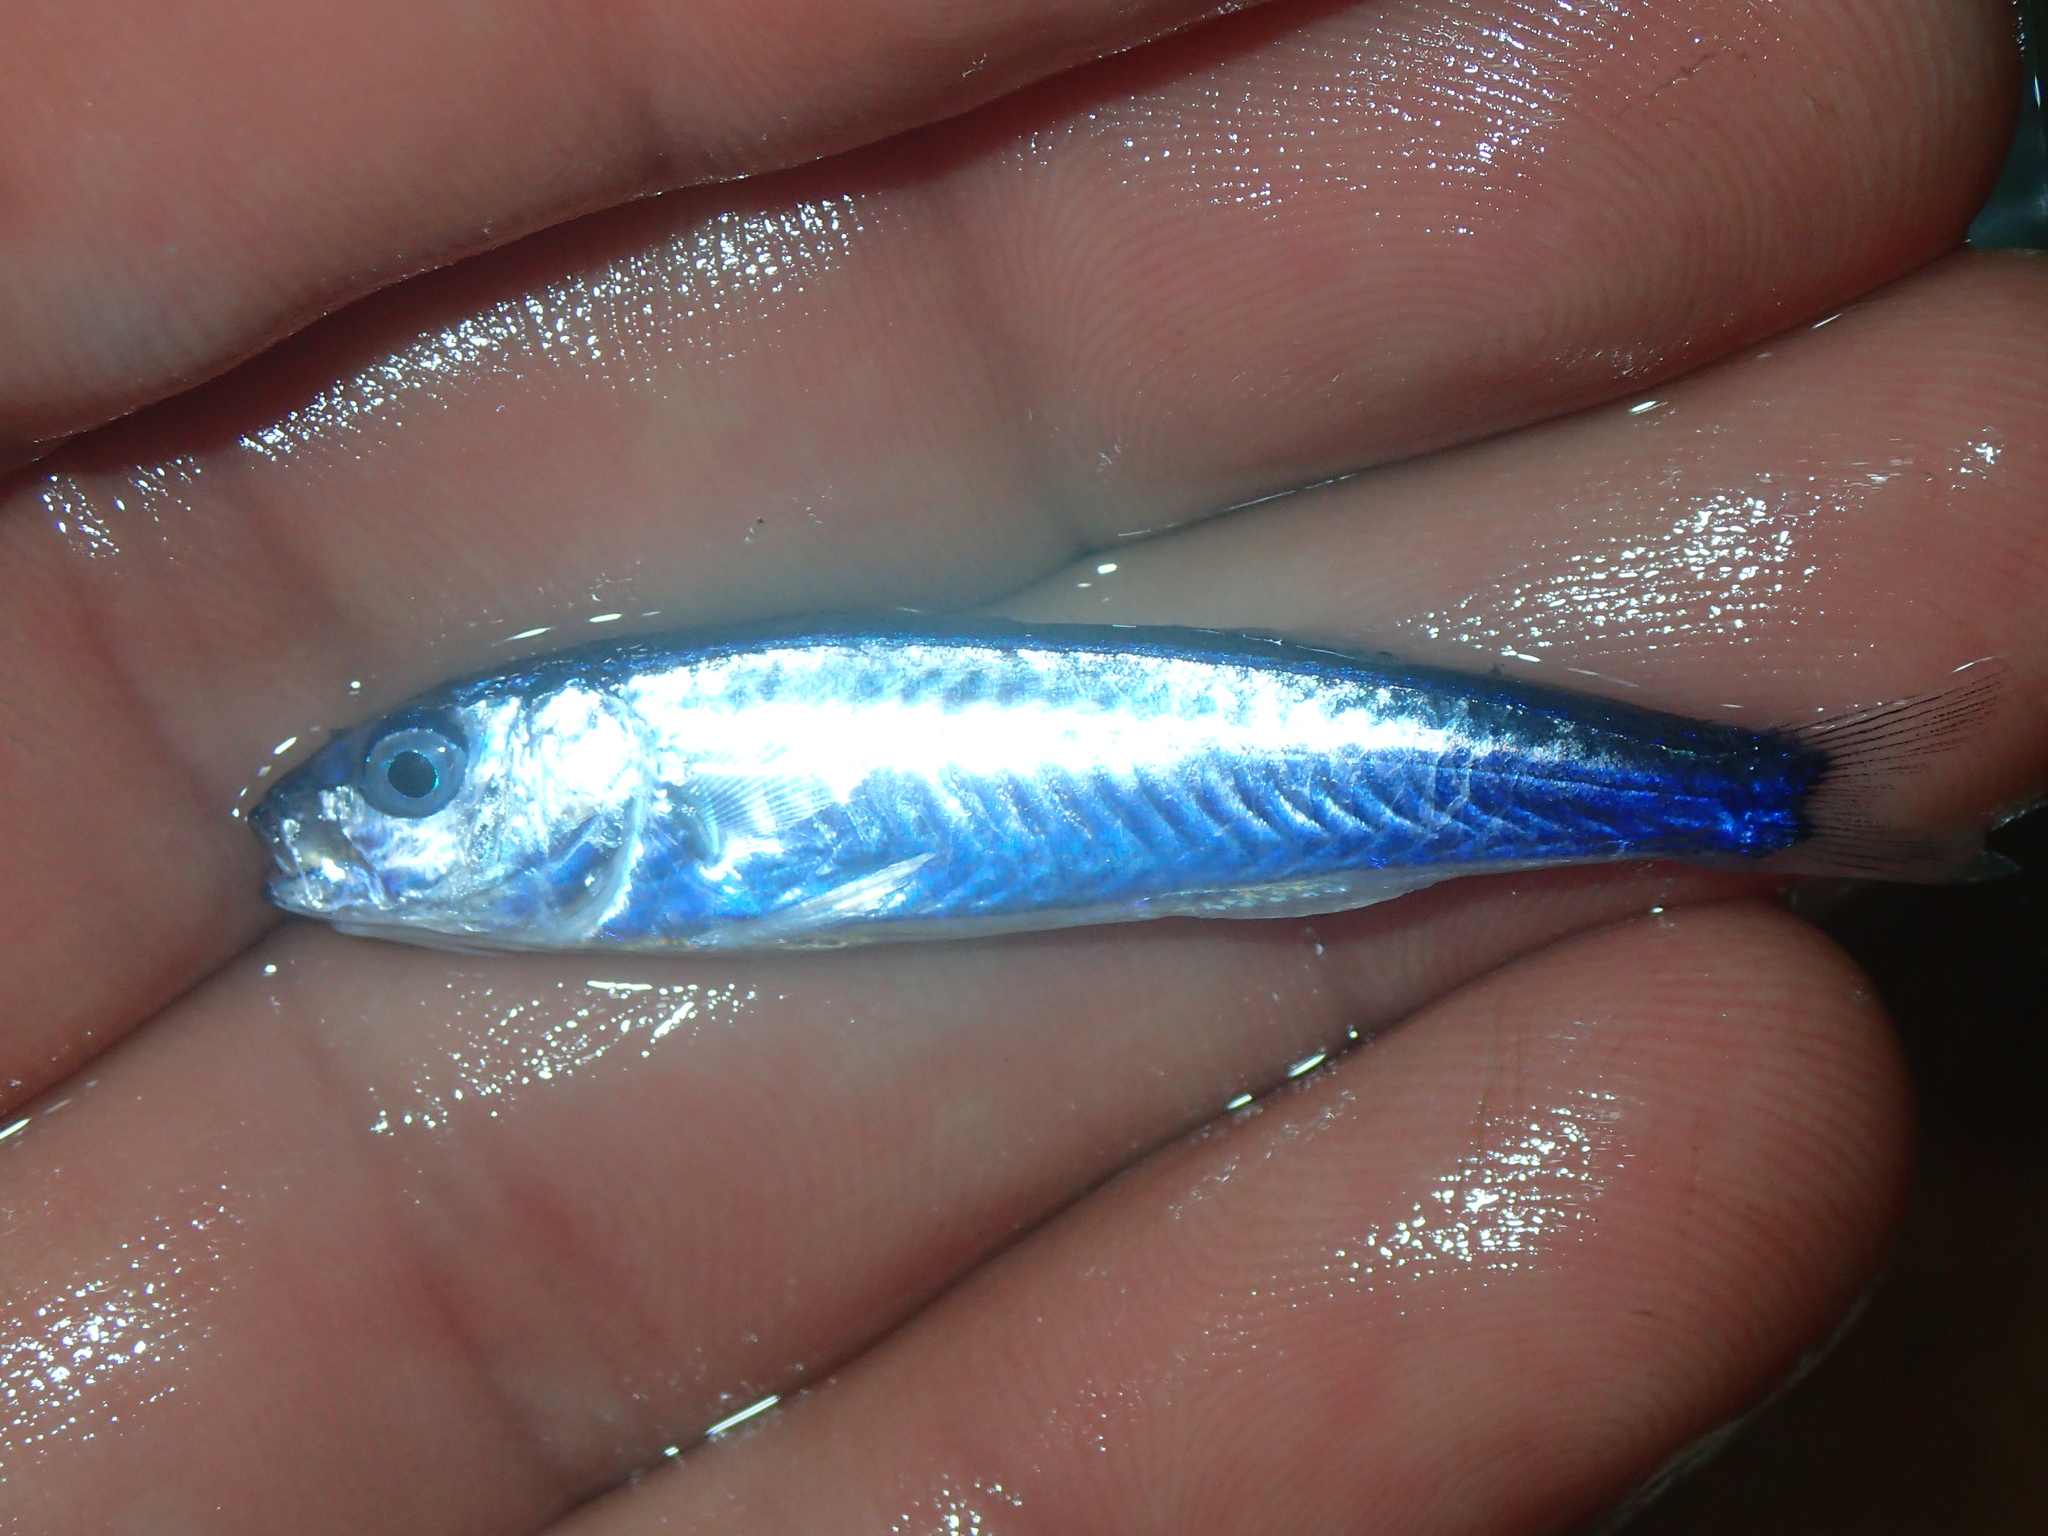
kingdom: Animalia
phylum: Chordata
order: Perciformes
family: Mullidae
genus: Mullus
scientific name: Mullus barbatus
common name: Blunt-snouted mullet
